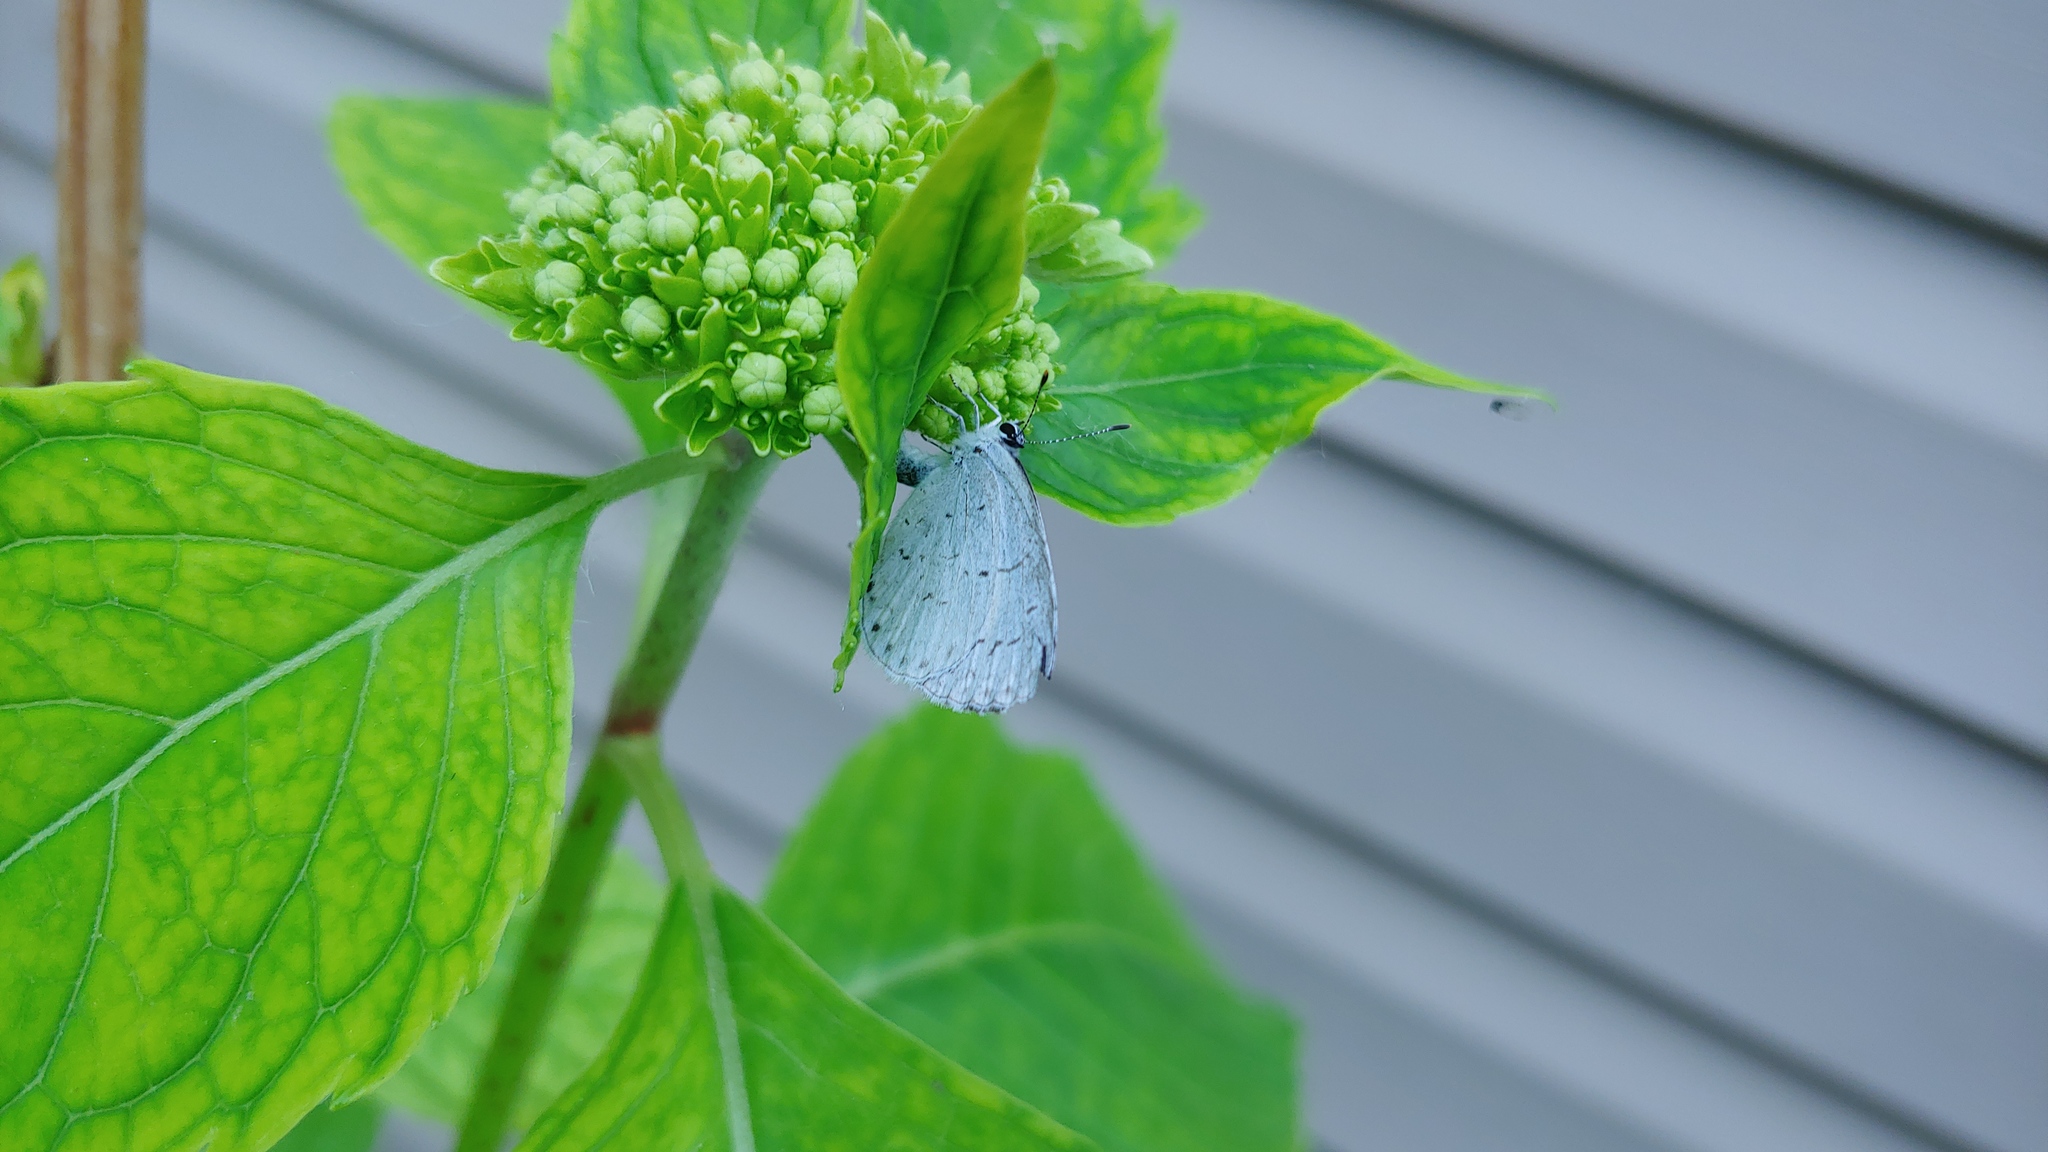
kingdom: Animalia
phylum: Arthropoda
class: Insecta
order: Lepidoptera
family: Lycaenidae
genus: Cyaniris
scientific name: Cyaniris neglecta
